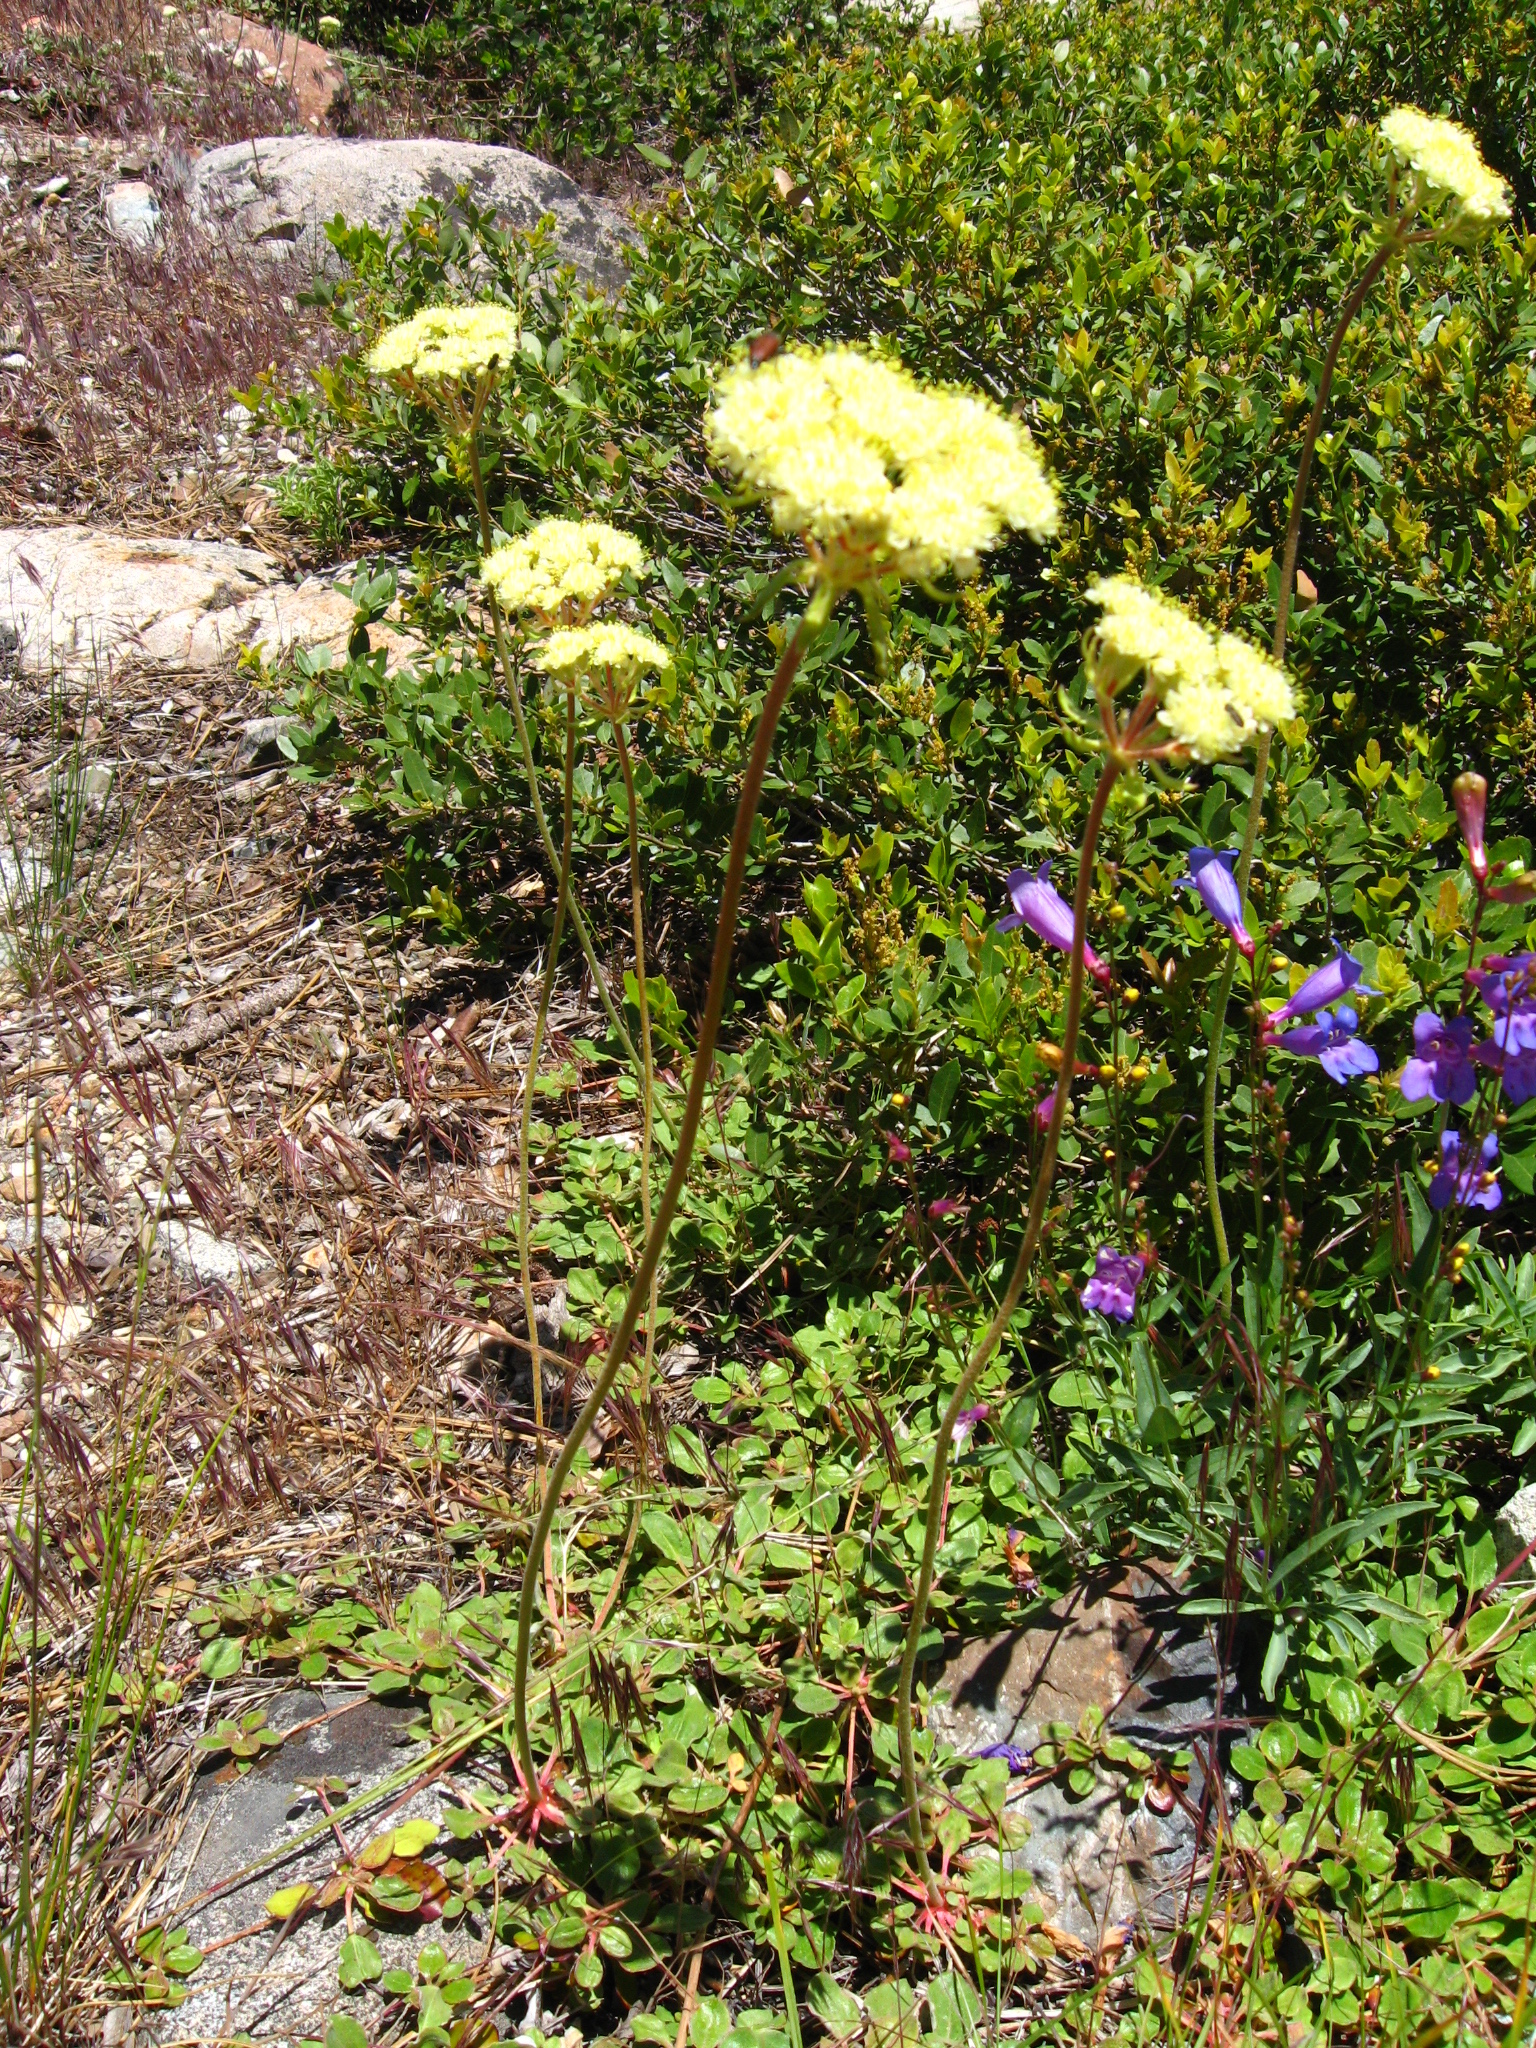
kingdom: Plantae
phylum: Tracheophyta
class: Magnoliopsida
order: Caryophyllales
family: Polygonaceae
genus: Eriogonum
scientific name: Eriogonum ursinum
